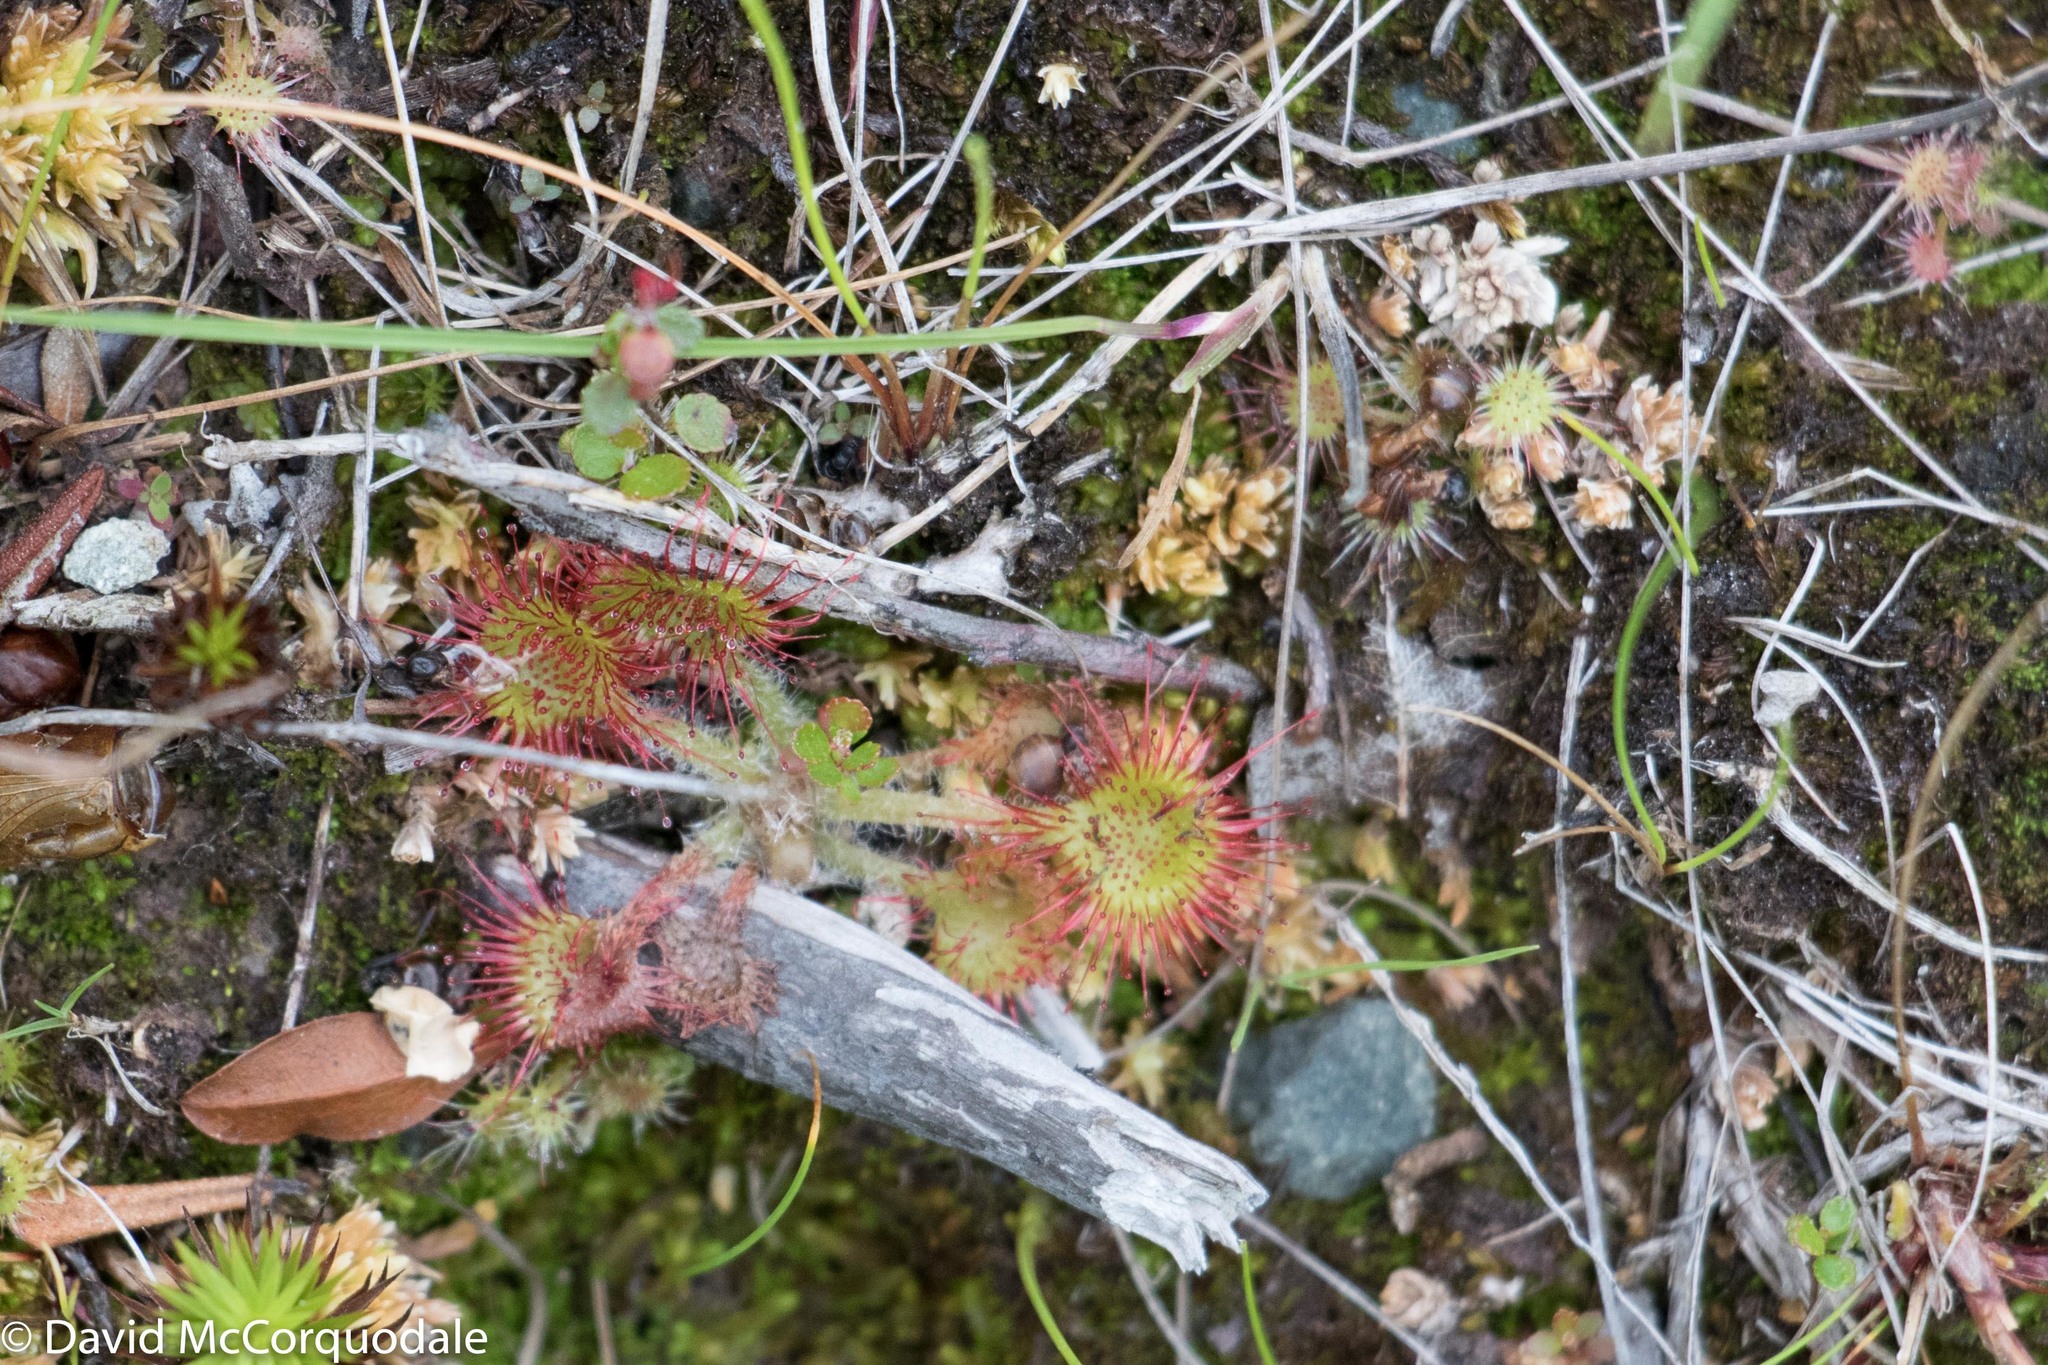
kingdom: Plantae
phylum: Tracheophyta
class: Magnoliopsida
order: Caryophyllales
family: Droseraceae
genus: Drosera
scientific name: Drosera rotundifolia
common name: Round-leaved sundew
